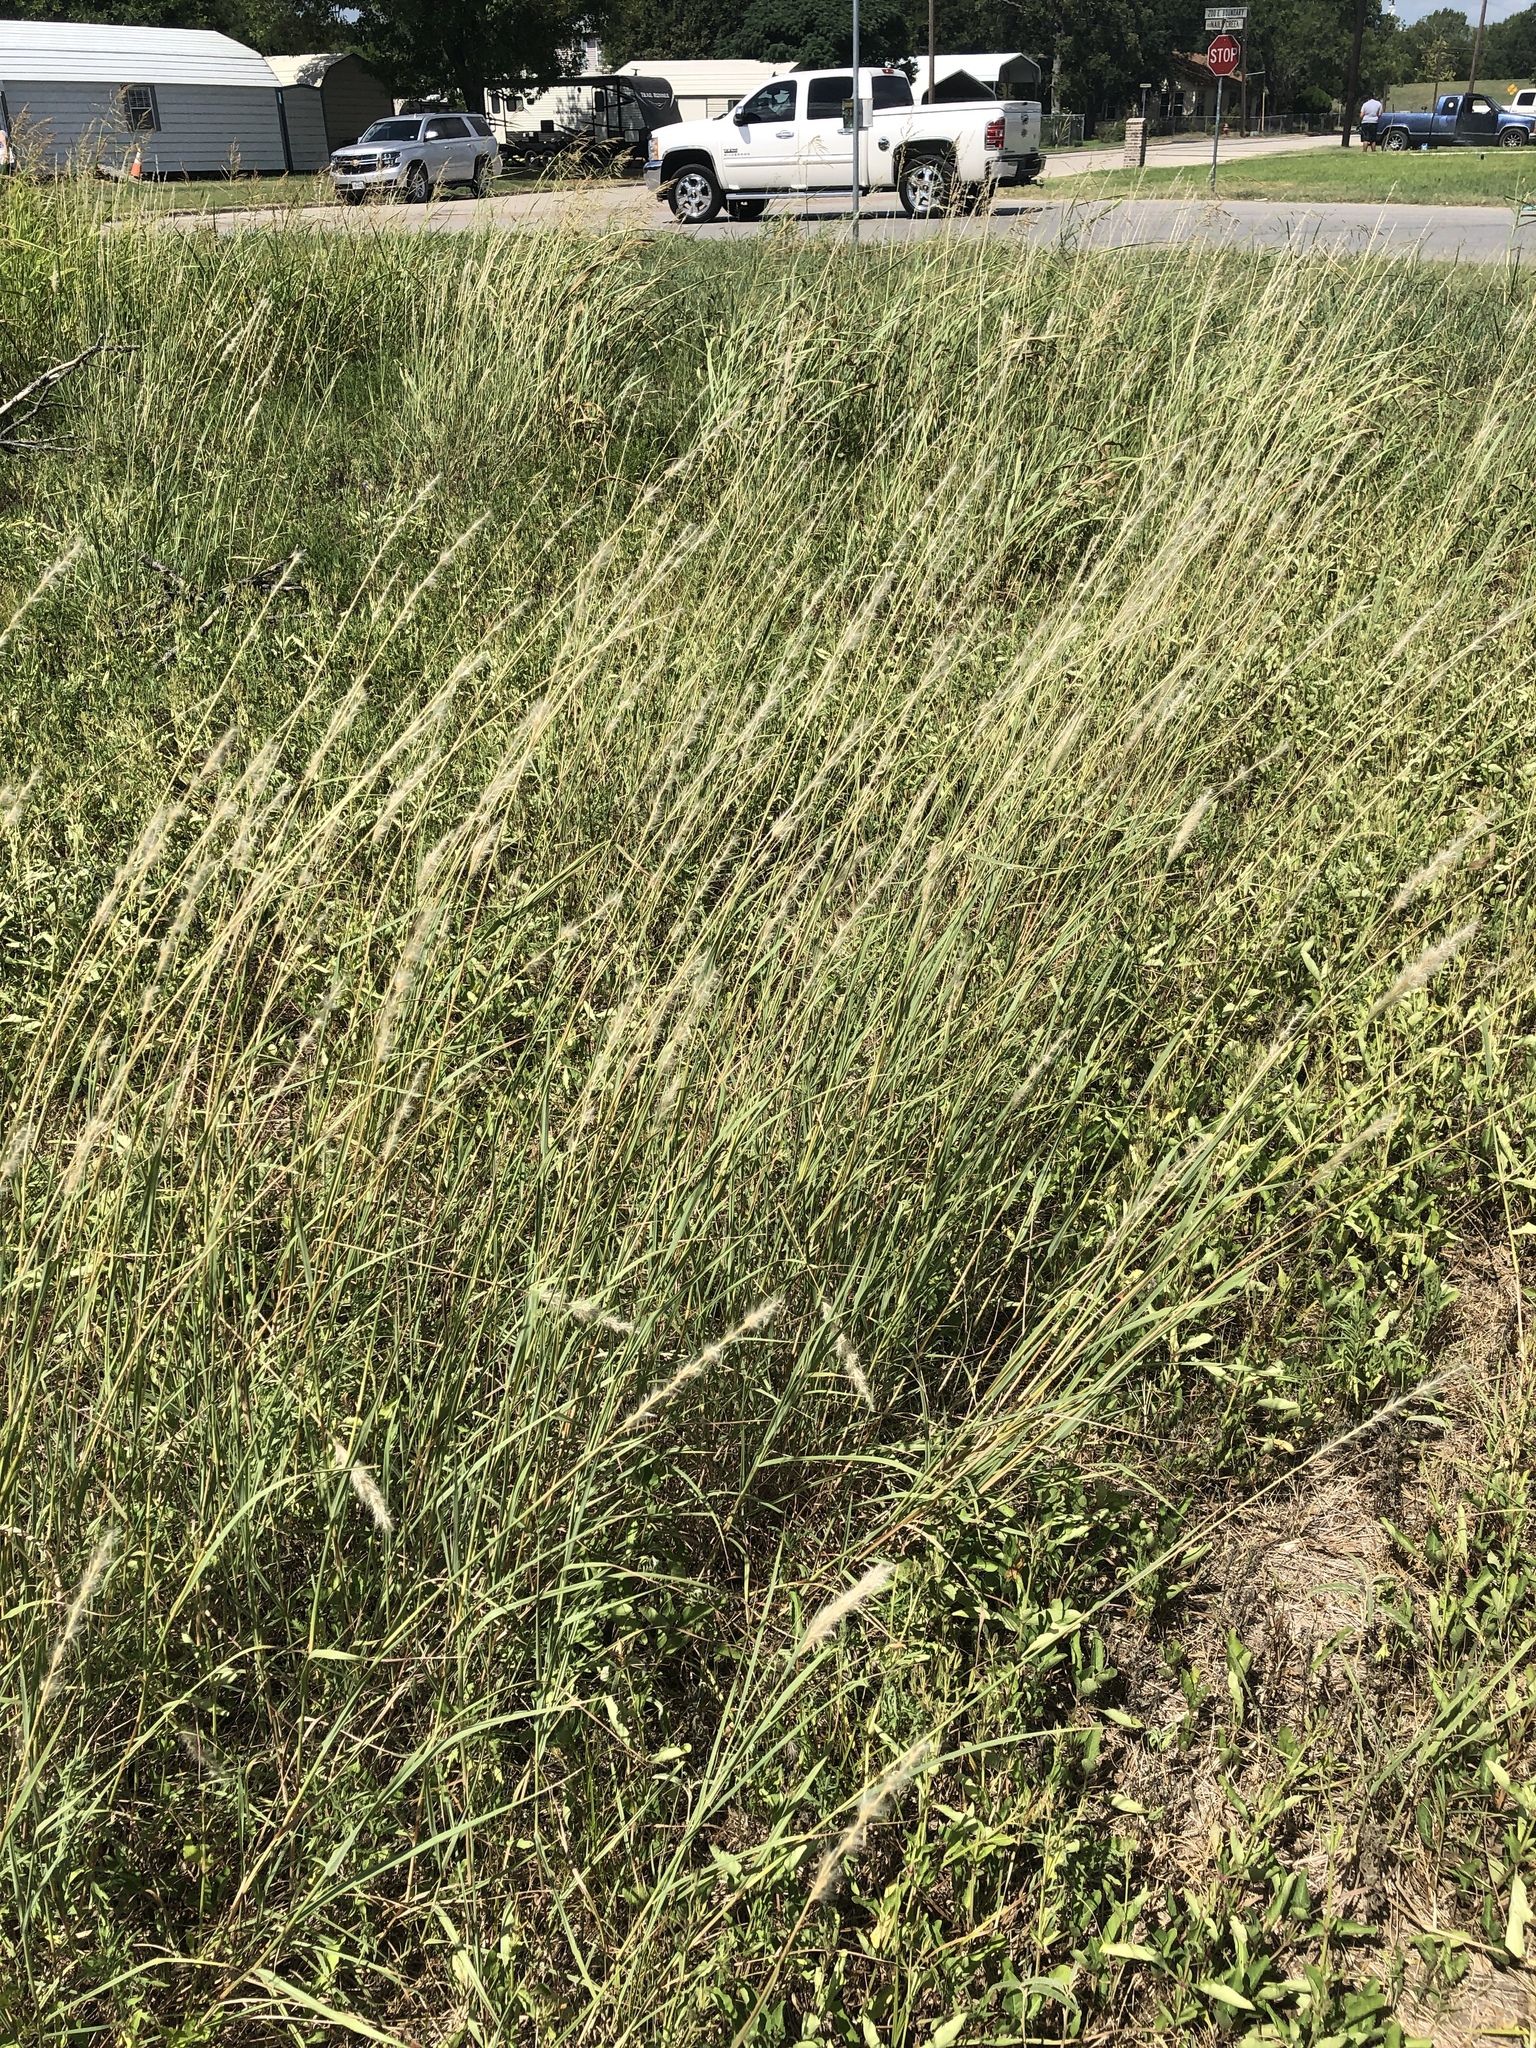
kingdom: Plantae
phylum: Tracheophyta
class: Liliopsida
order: Poales
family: Poaceae
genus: Bothriochloa
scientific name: Bothriochloa torreyana
